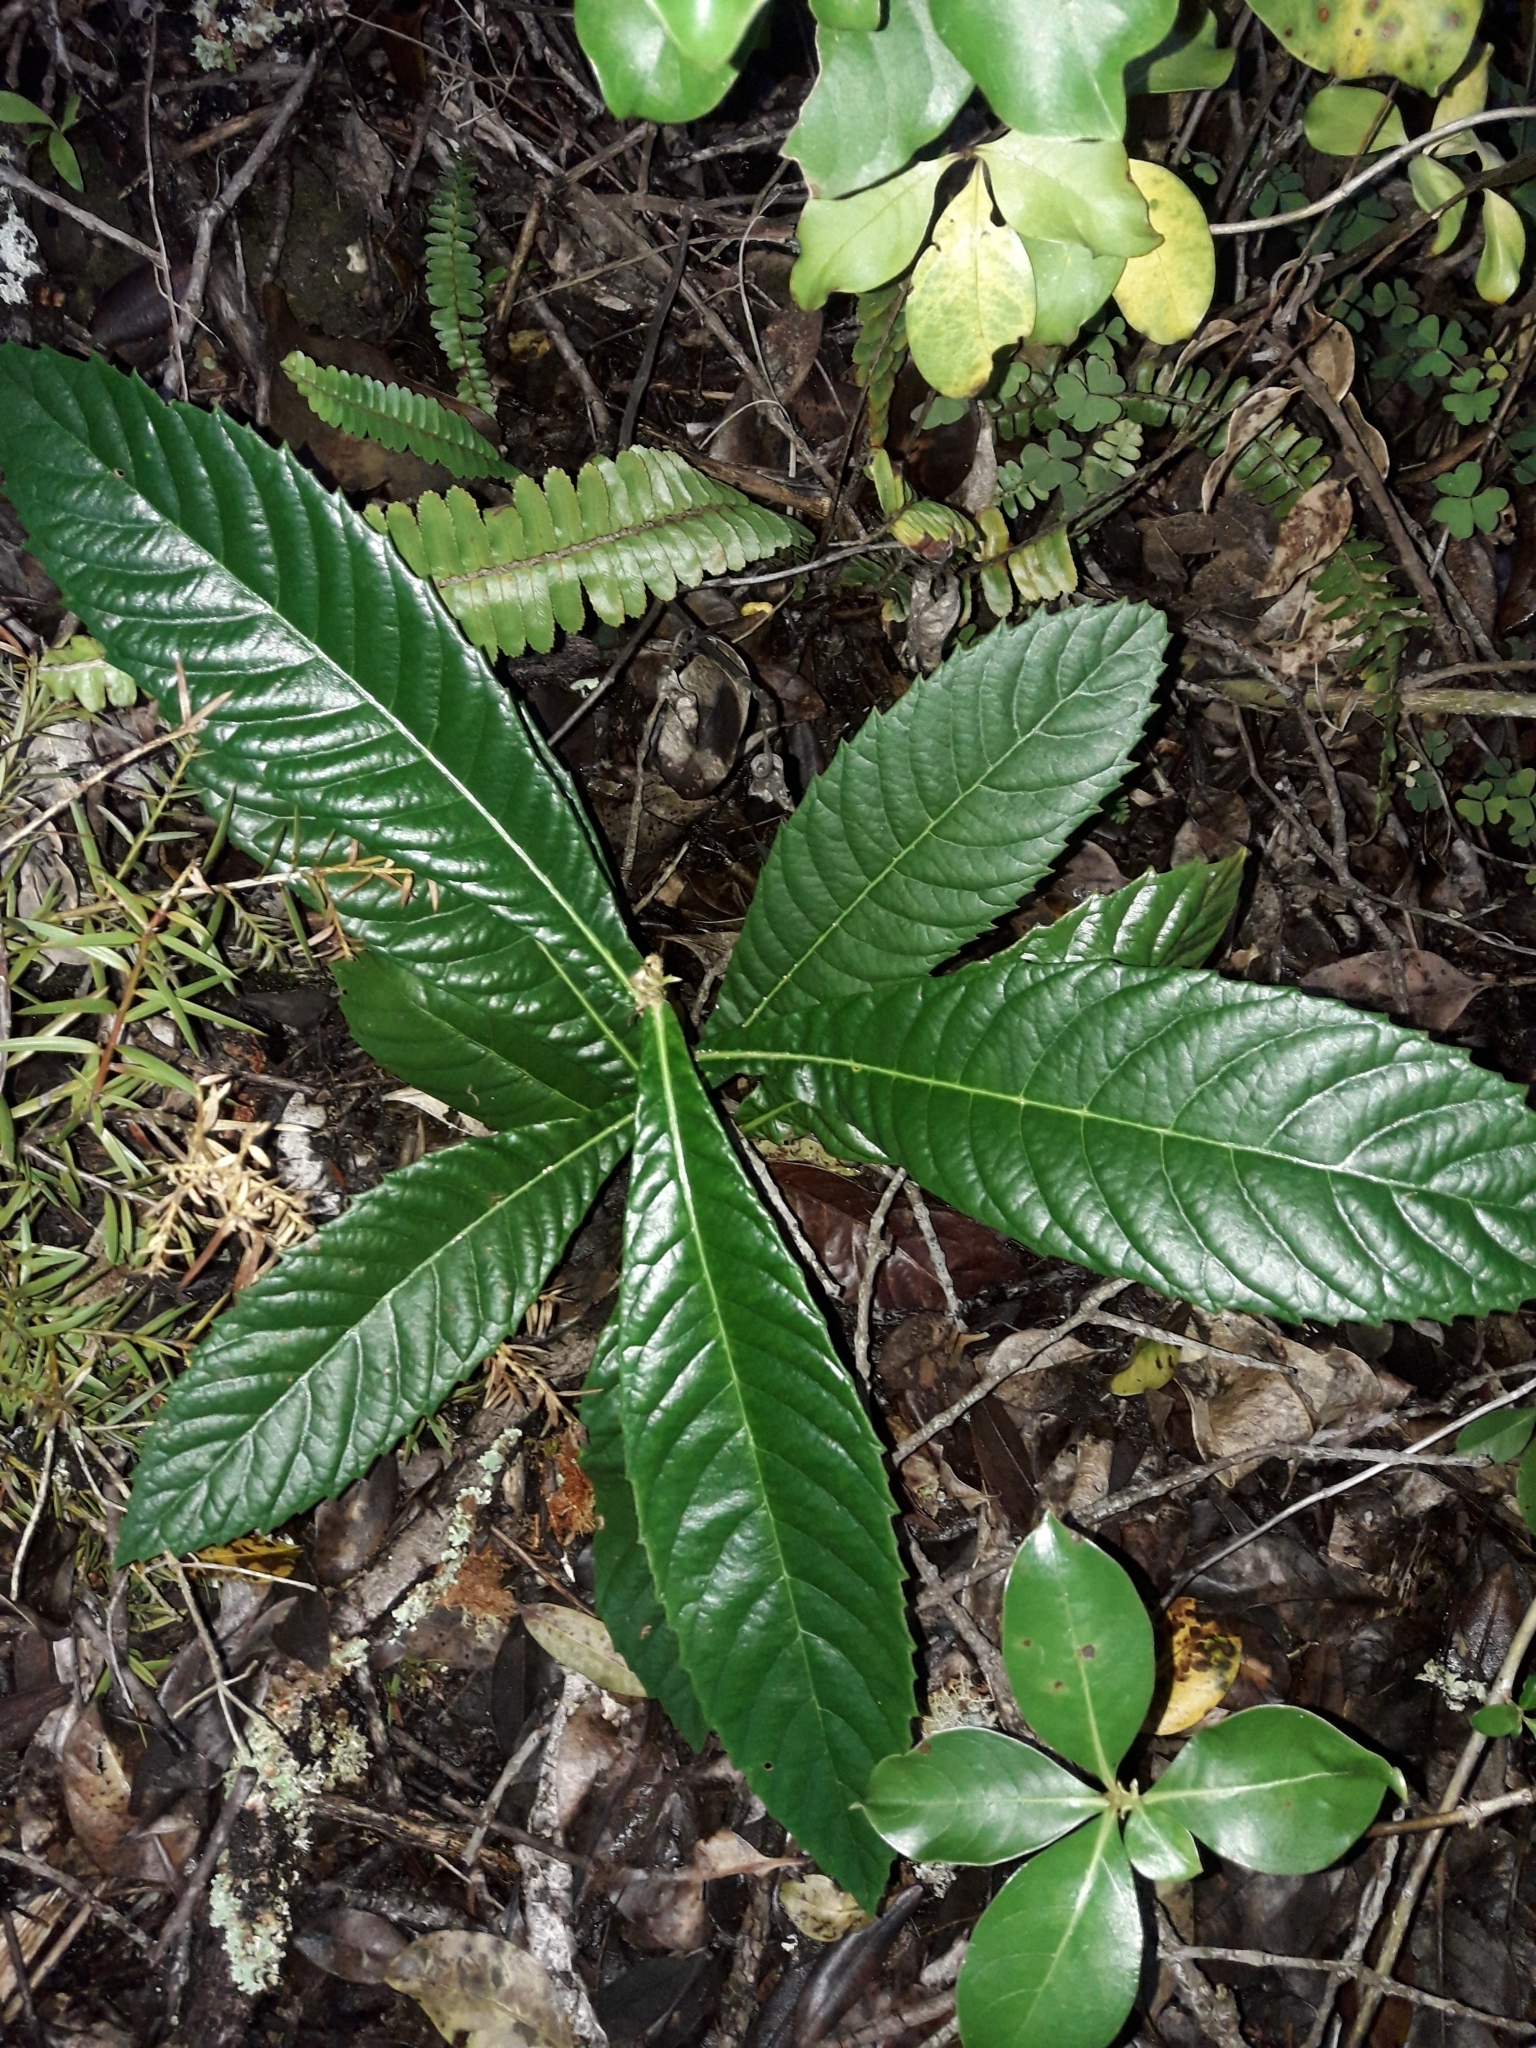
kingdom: Plantae
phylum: Tracheophyta
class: Magnoliopsida
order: Rosales
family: Rosaceae
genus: Rhaphiolepis
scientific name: Rhaphiolepis bibas
